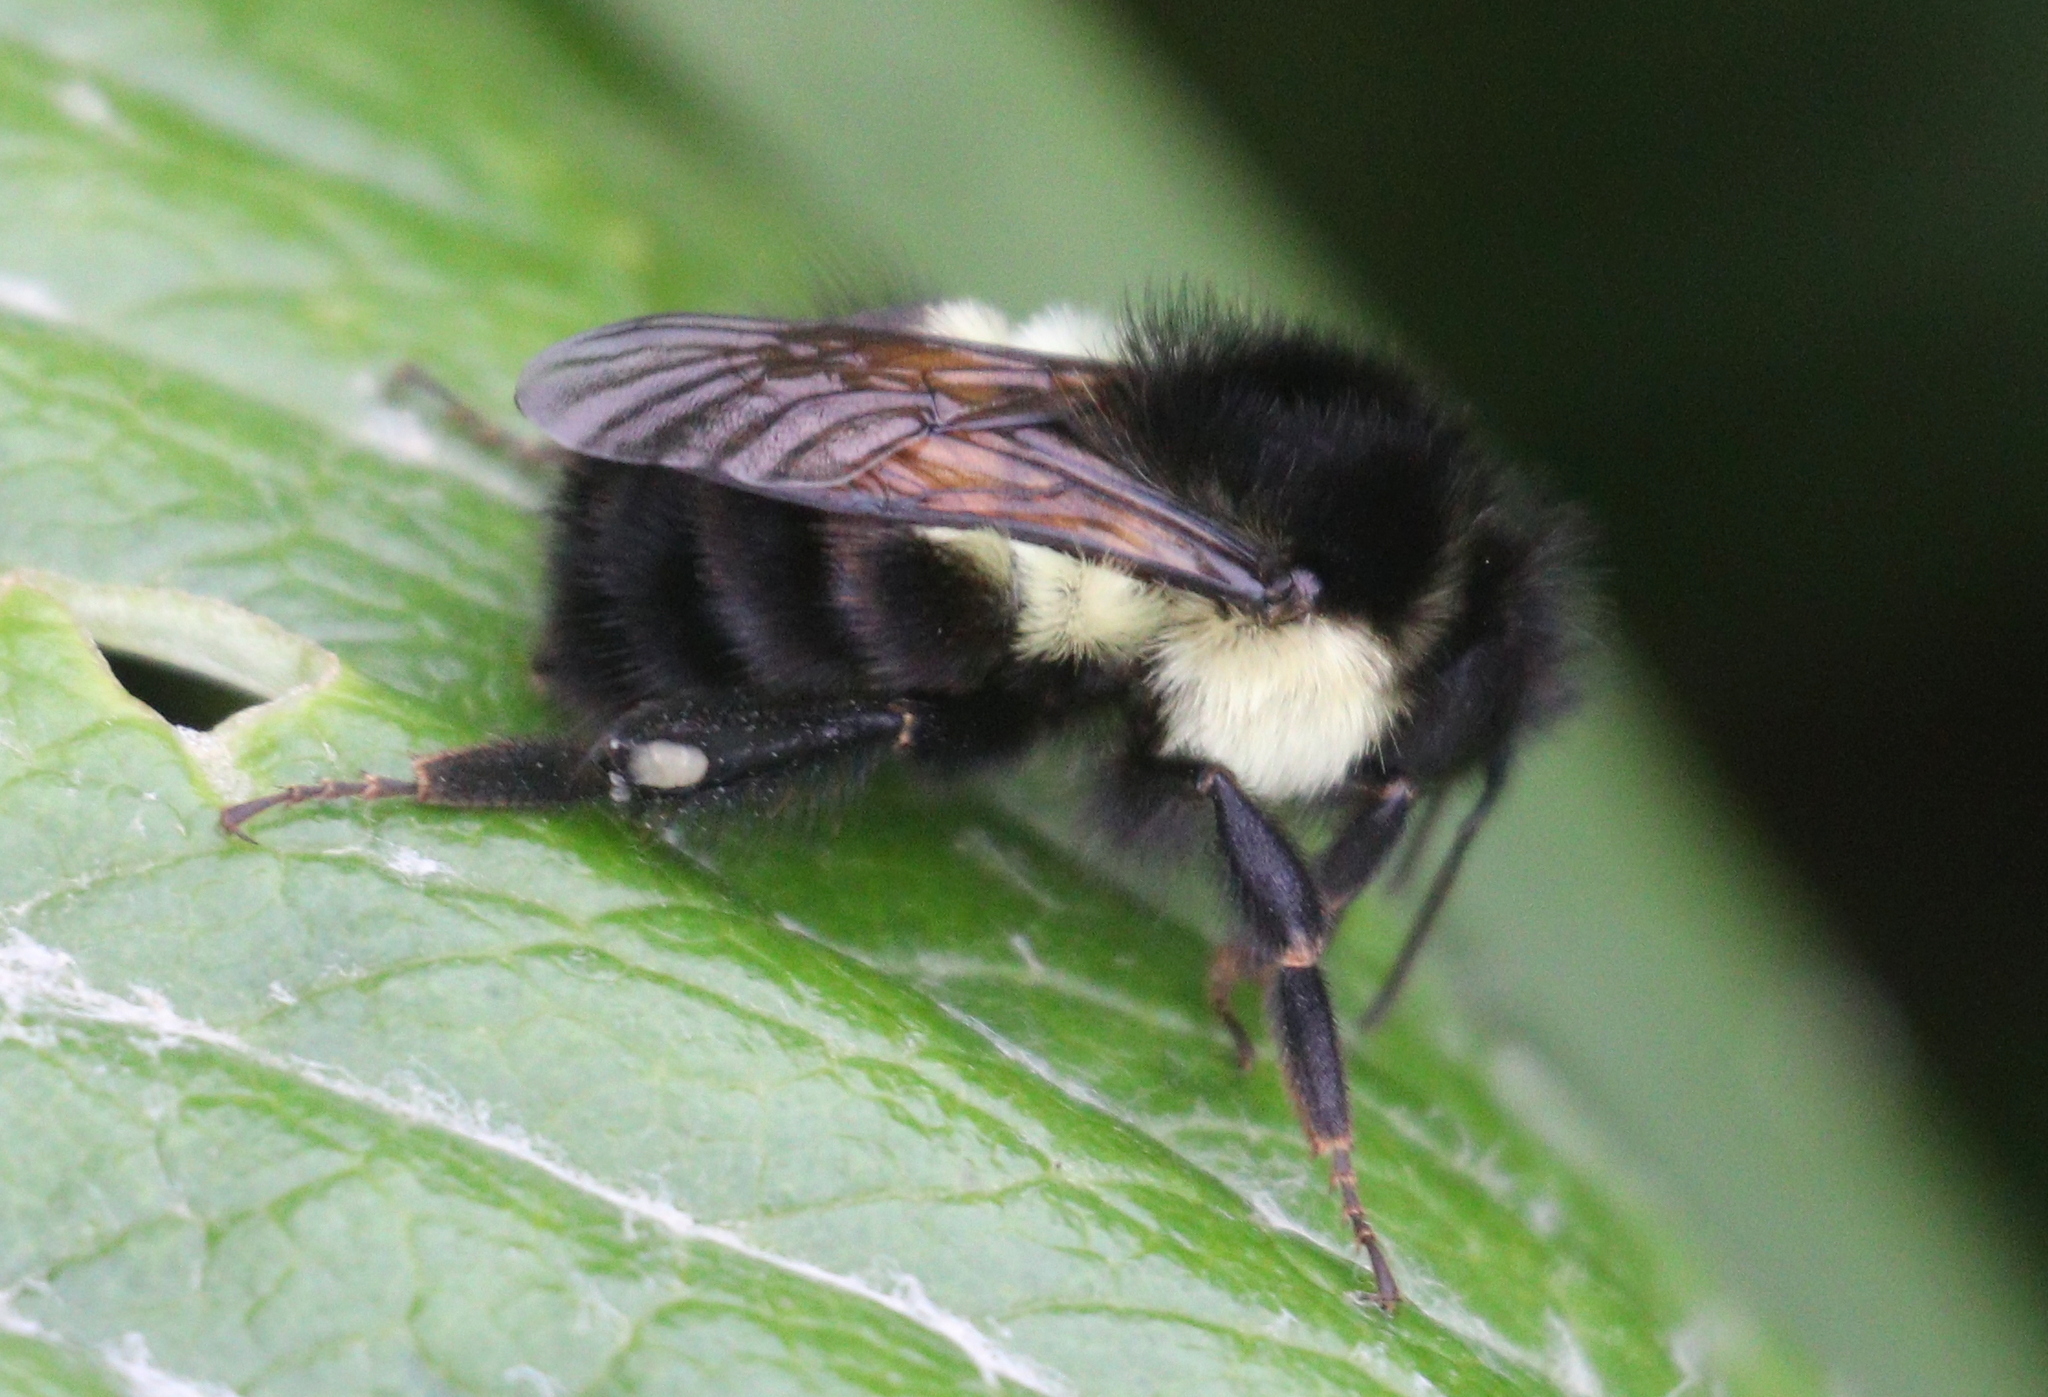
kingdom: Animalia
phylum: Arthropoda
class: Insecta
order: Hymenoptera
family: Apidae
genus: Bombus
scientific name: Bombus ephippiatus
